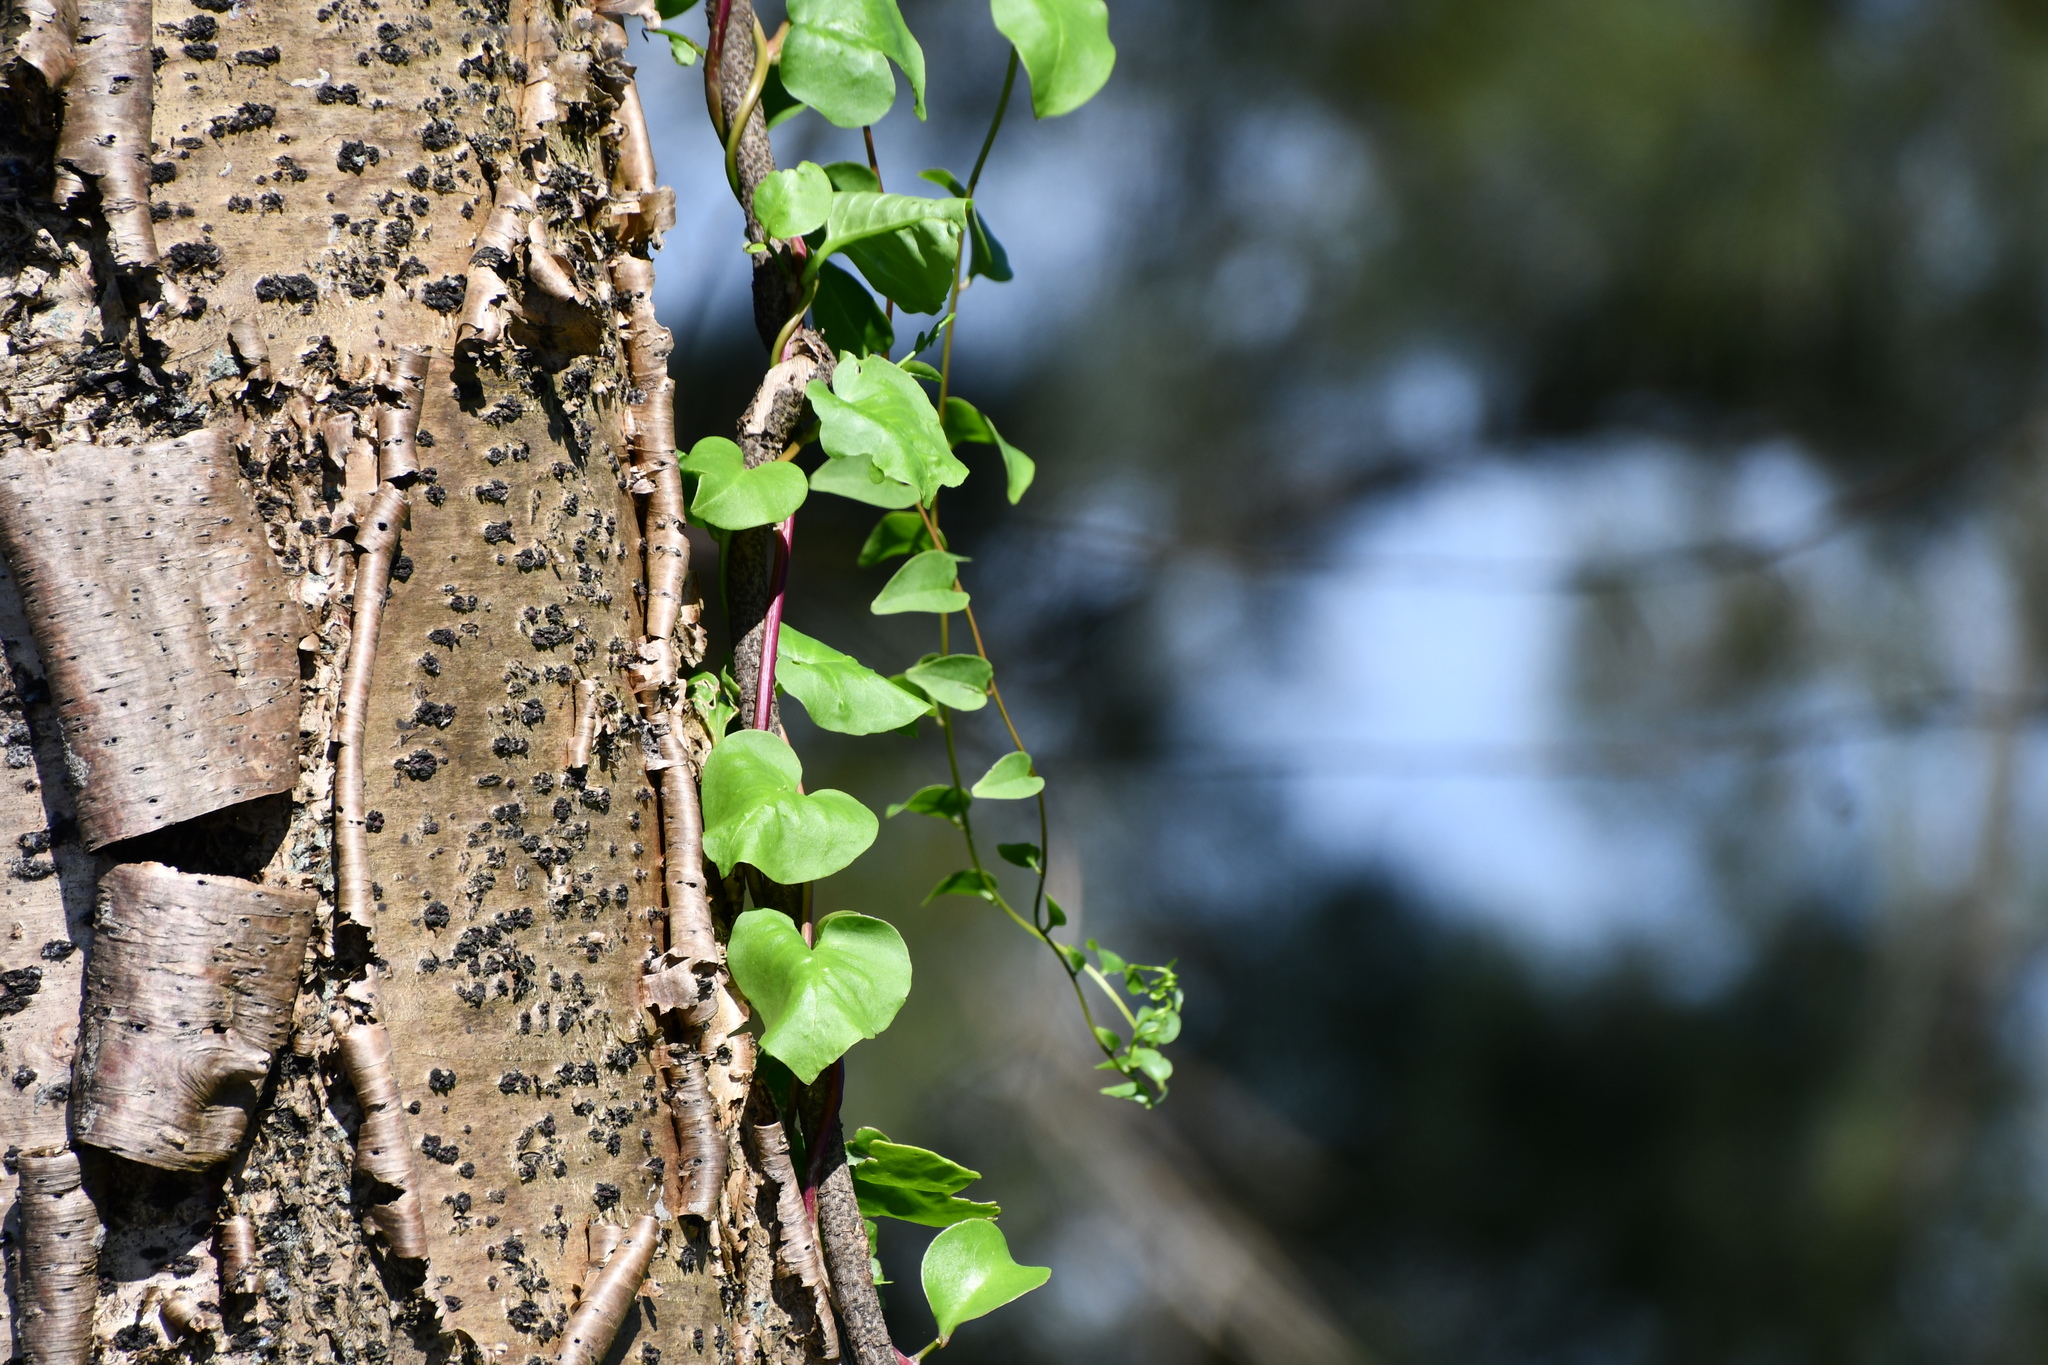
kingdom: Plantae
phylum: Tracheophyta
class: Magnoliopsida
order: Caryophyllales
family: Basellaceae
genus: Anredera
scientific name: Anredera cordifolia
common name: Heartleaf madeiravine
